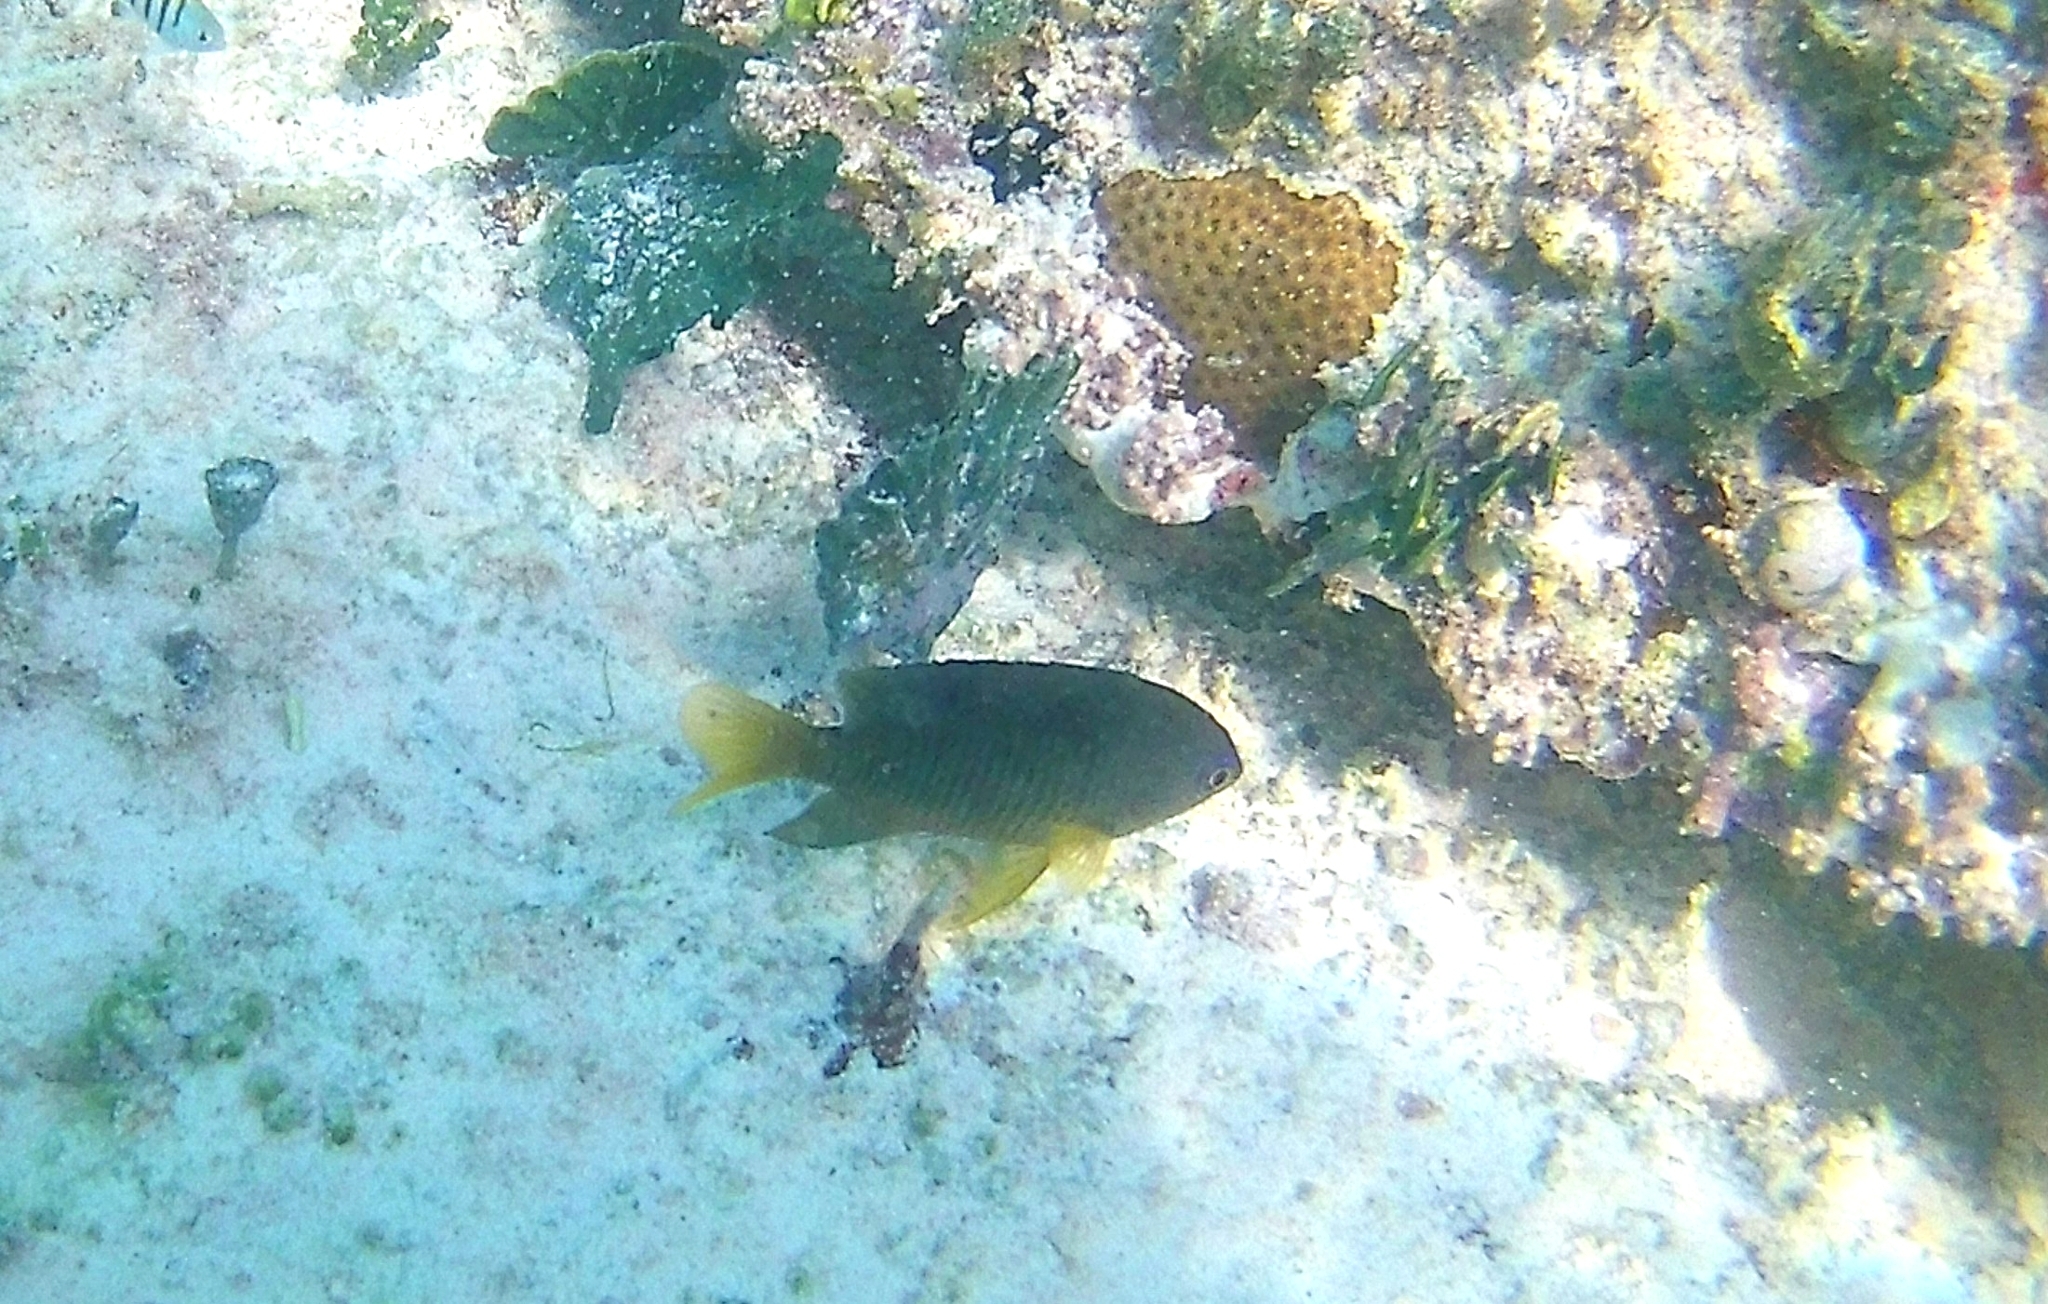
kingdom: Animalia
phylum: Chordata
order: Perciformes
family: Pomacentridae
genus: Stegastes
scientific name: Stegastes leucostictus
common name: Beaugregory
